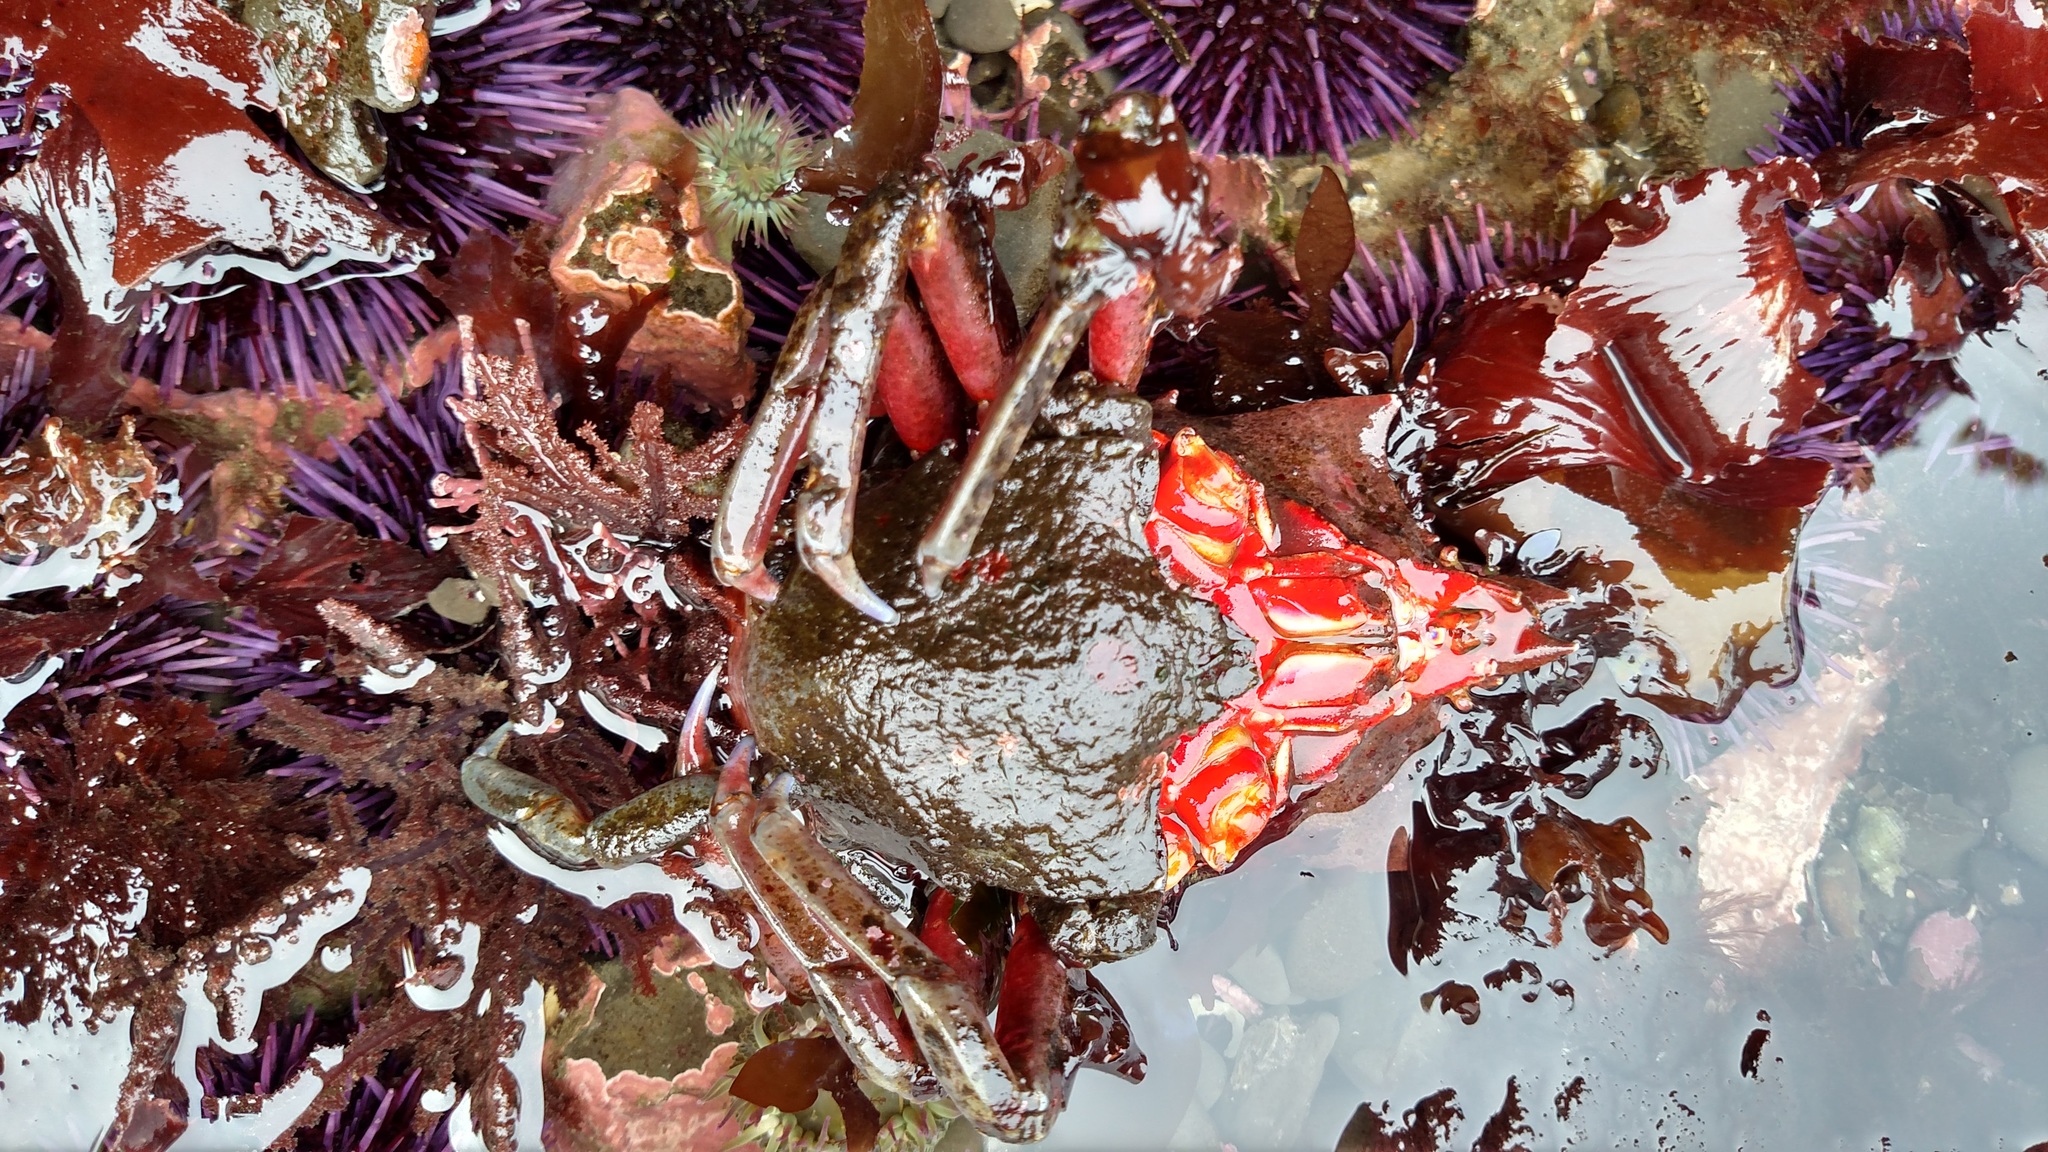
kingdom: Animalia
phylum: Arthropoda
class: Malacostraca
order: Decapoda
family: Epialtidae
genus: Pugettia
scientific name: Pugettia producta
